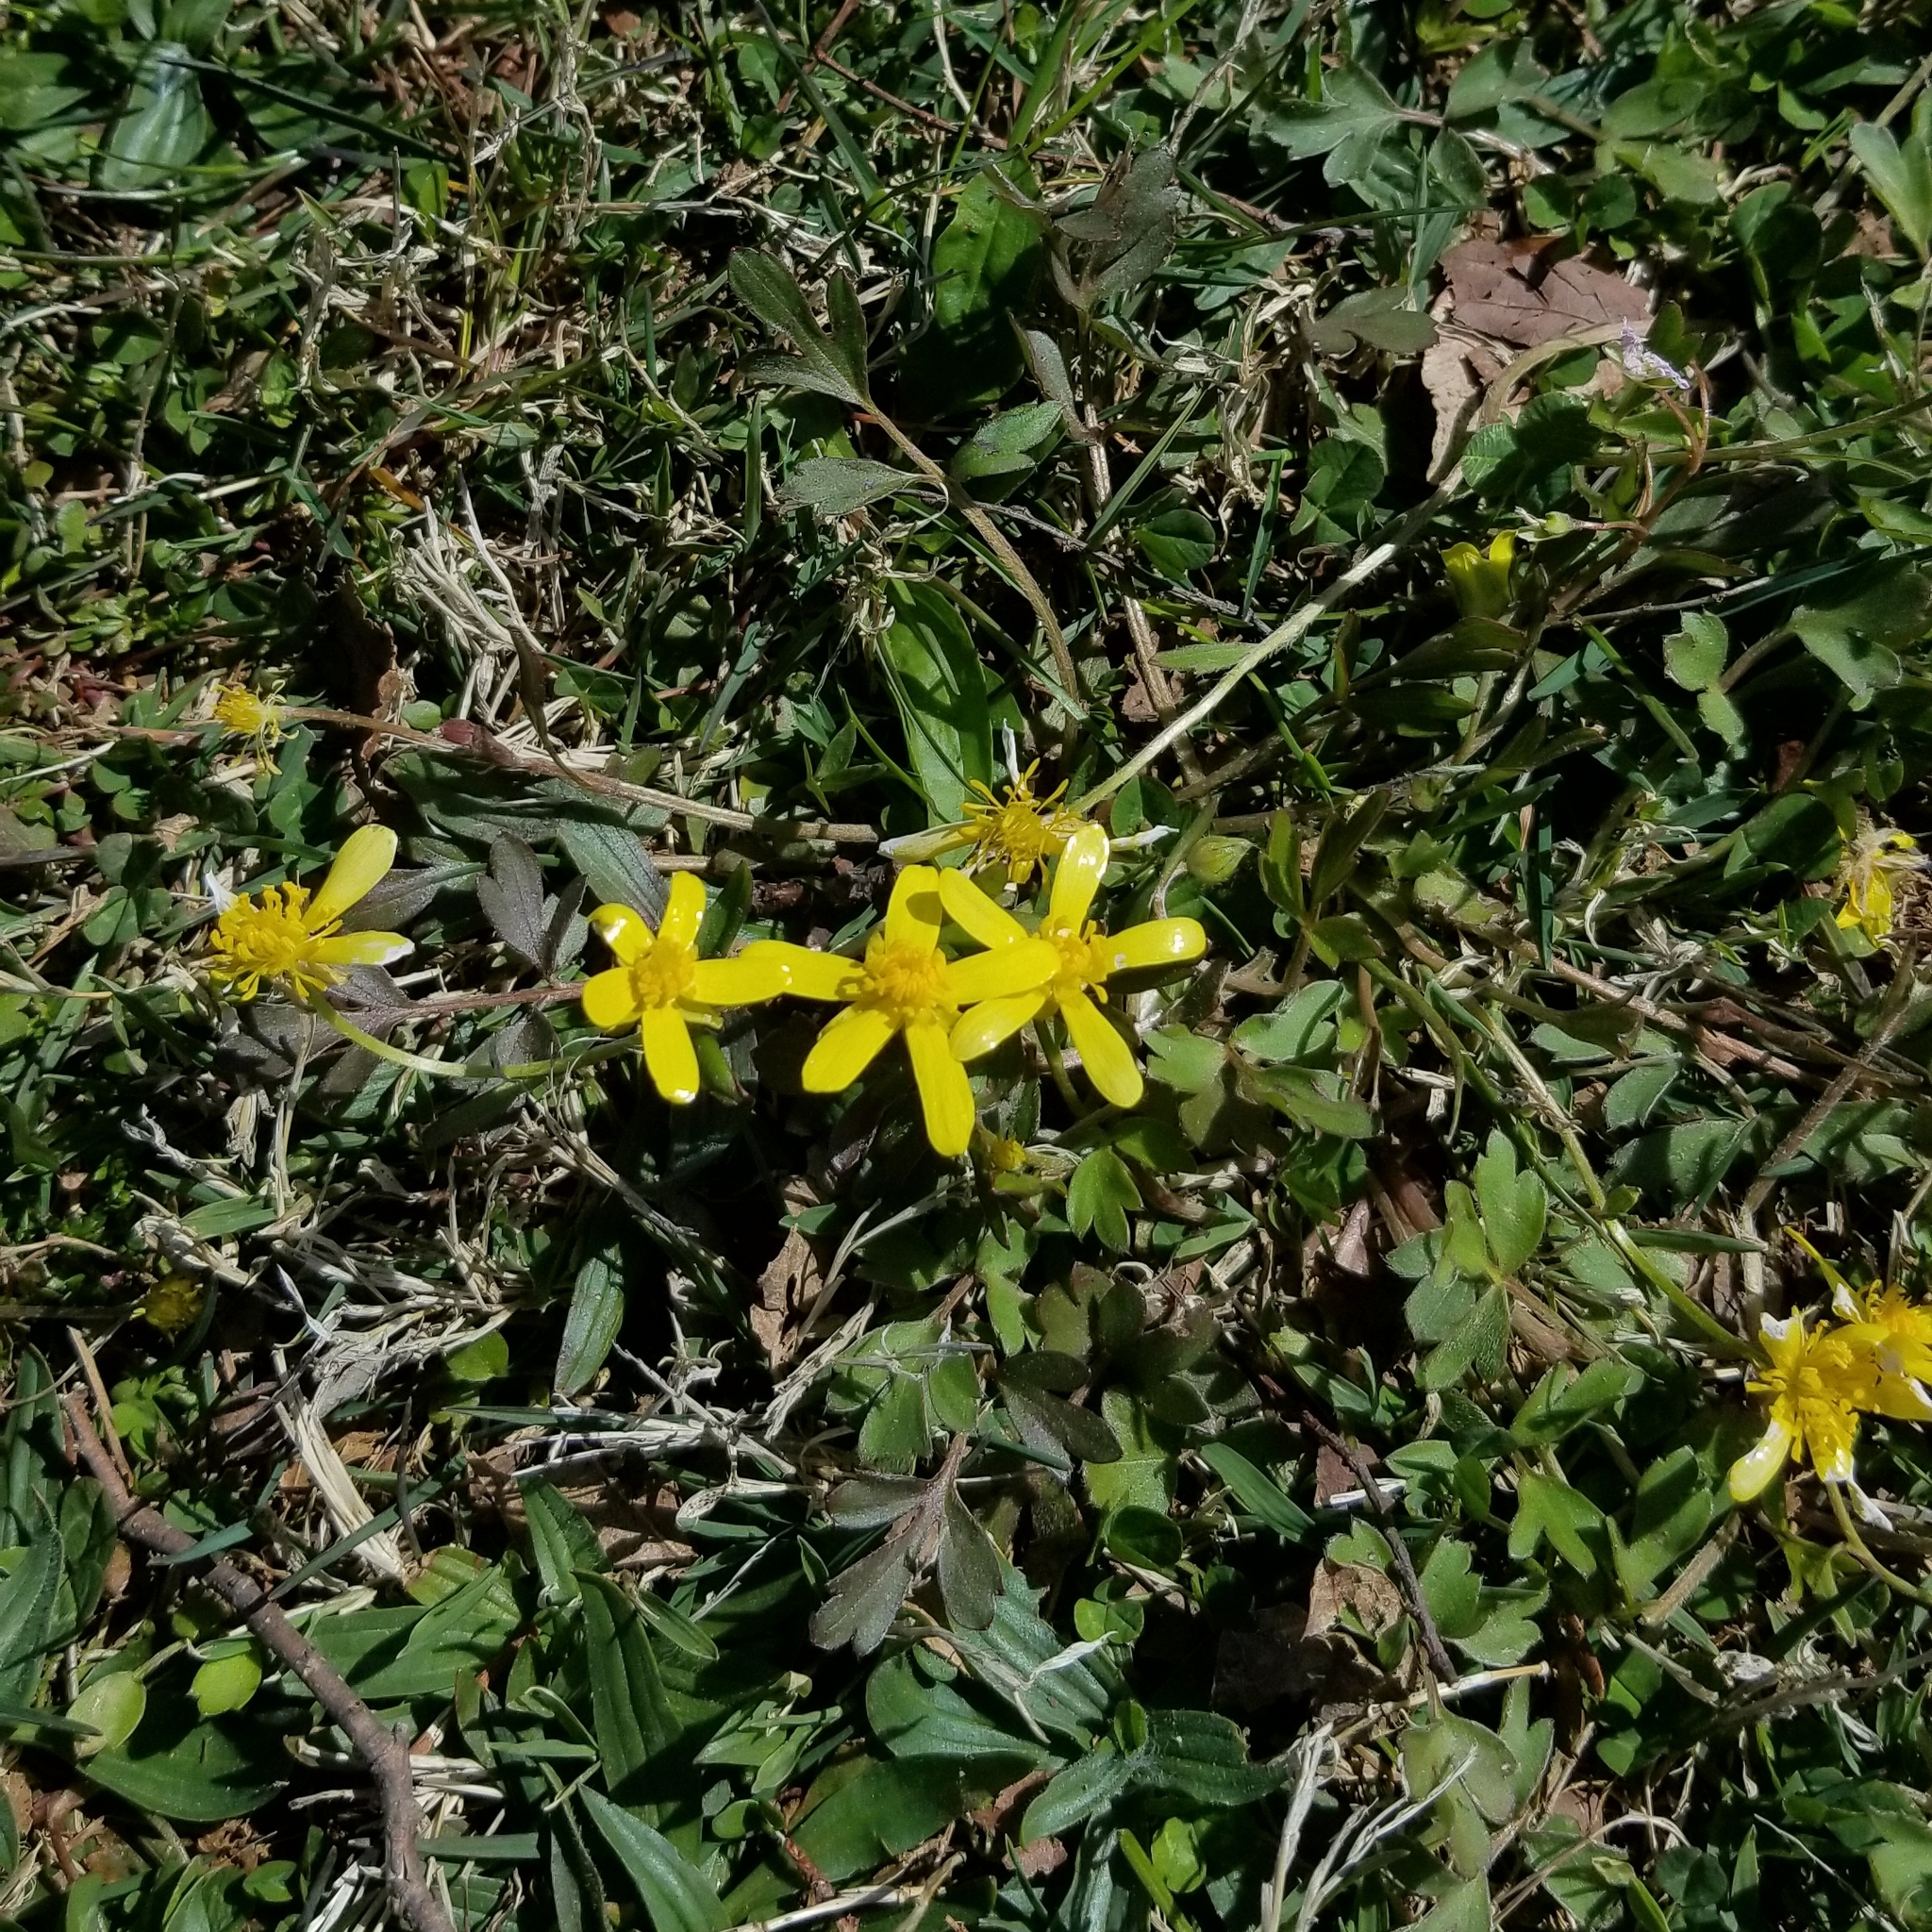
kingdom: Plantae
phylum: Tracheophyta
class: Magnoliopsida
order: Ranunculales
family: Ranunculaceae
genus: Ranunculus
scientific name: Ranunculus fascicularis
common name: Early buttercup
